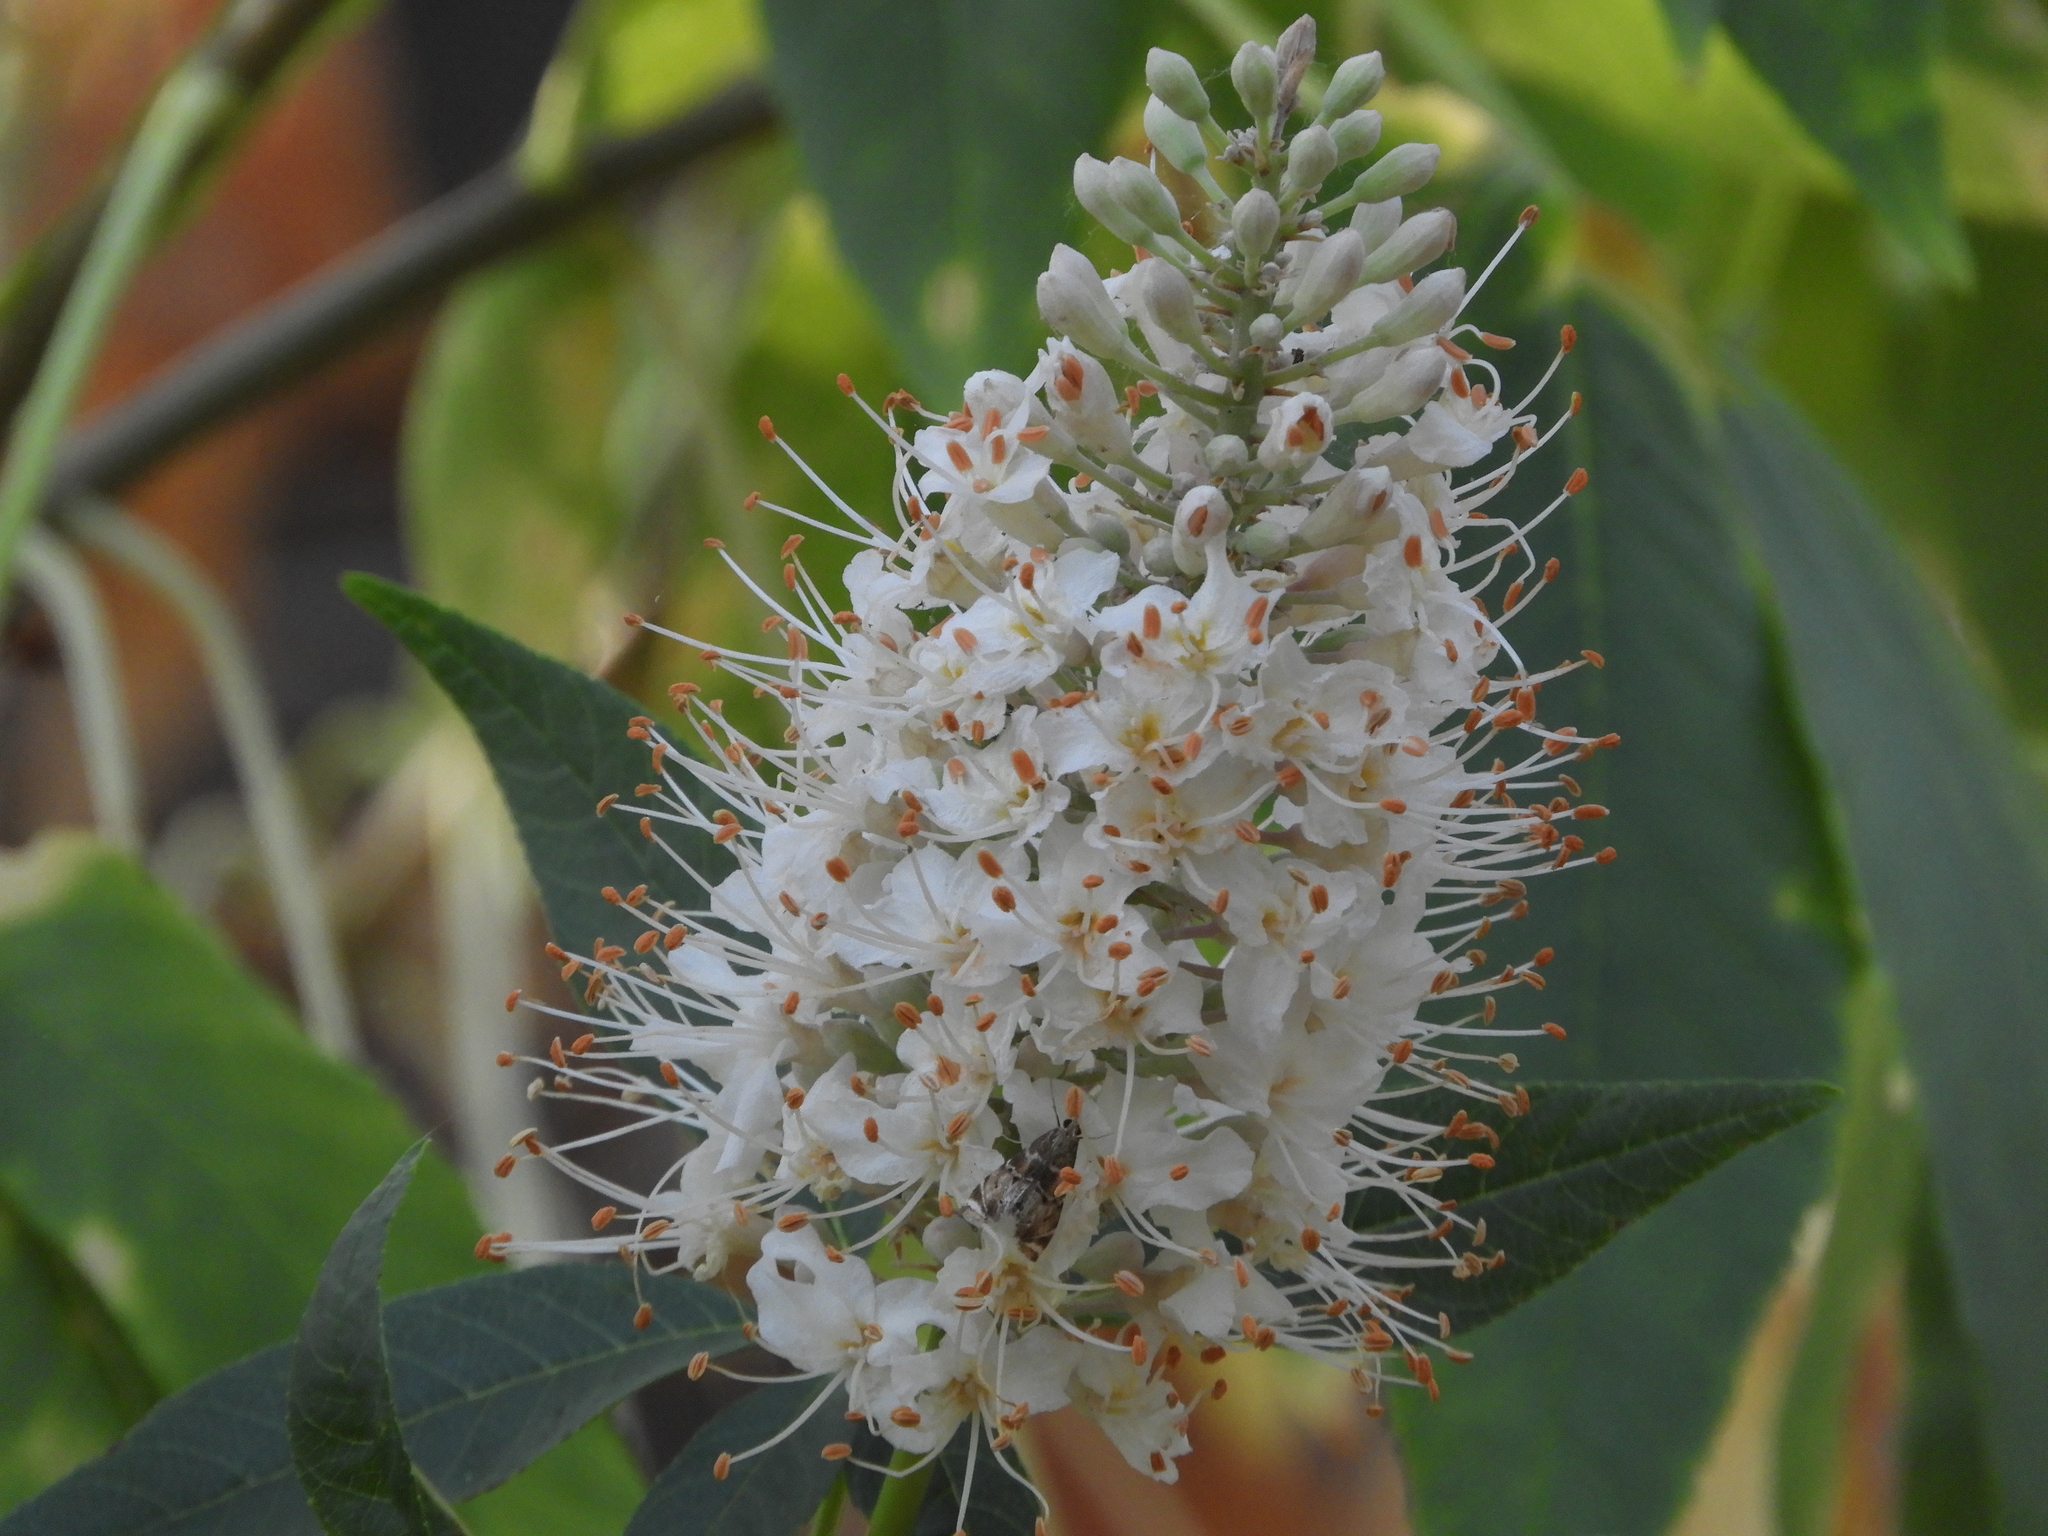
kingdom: Plantae
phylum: Tracheophyta
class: Magnoliopsida
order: Sapindales
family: Sapindaceae
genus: Aesculus
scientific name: Aesculus californica
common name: California buckeye
